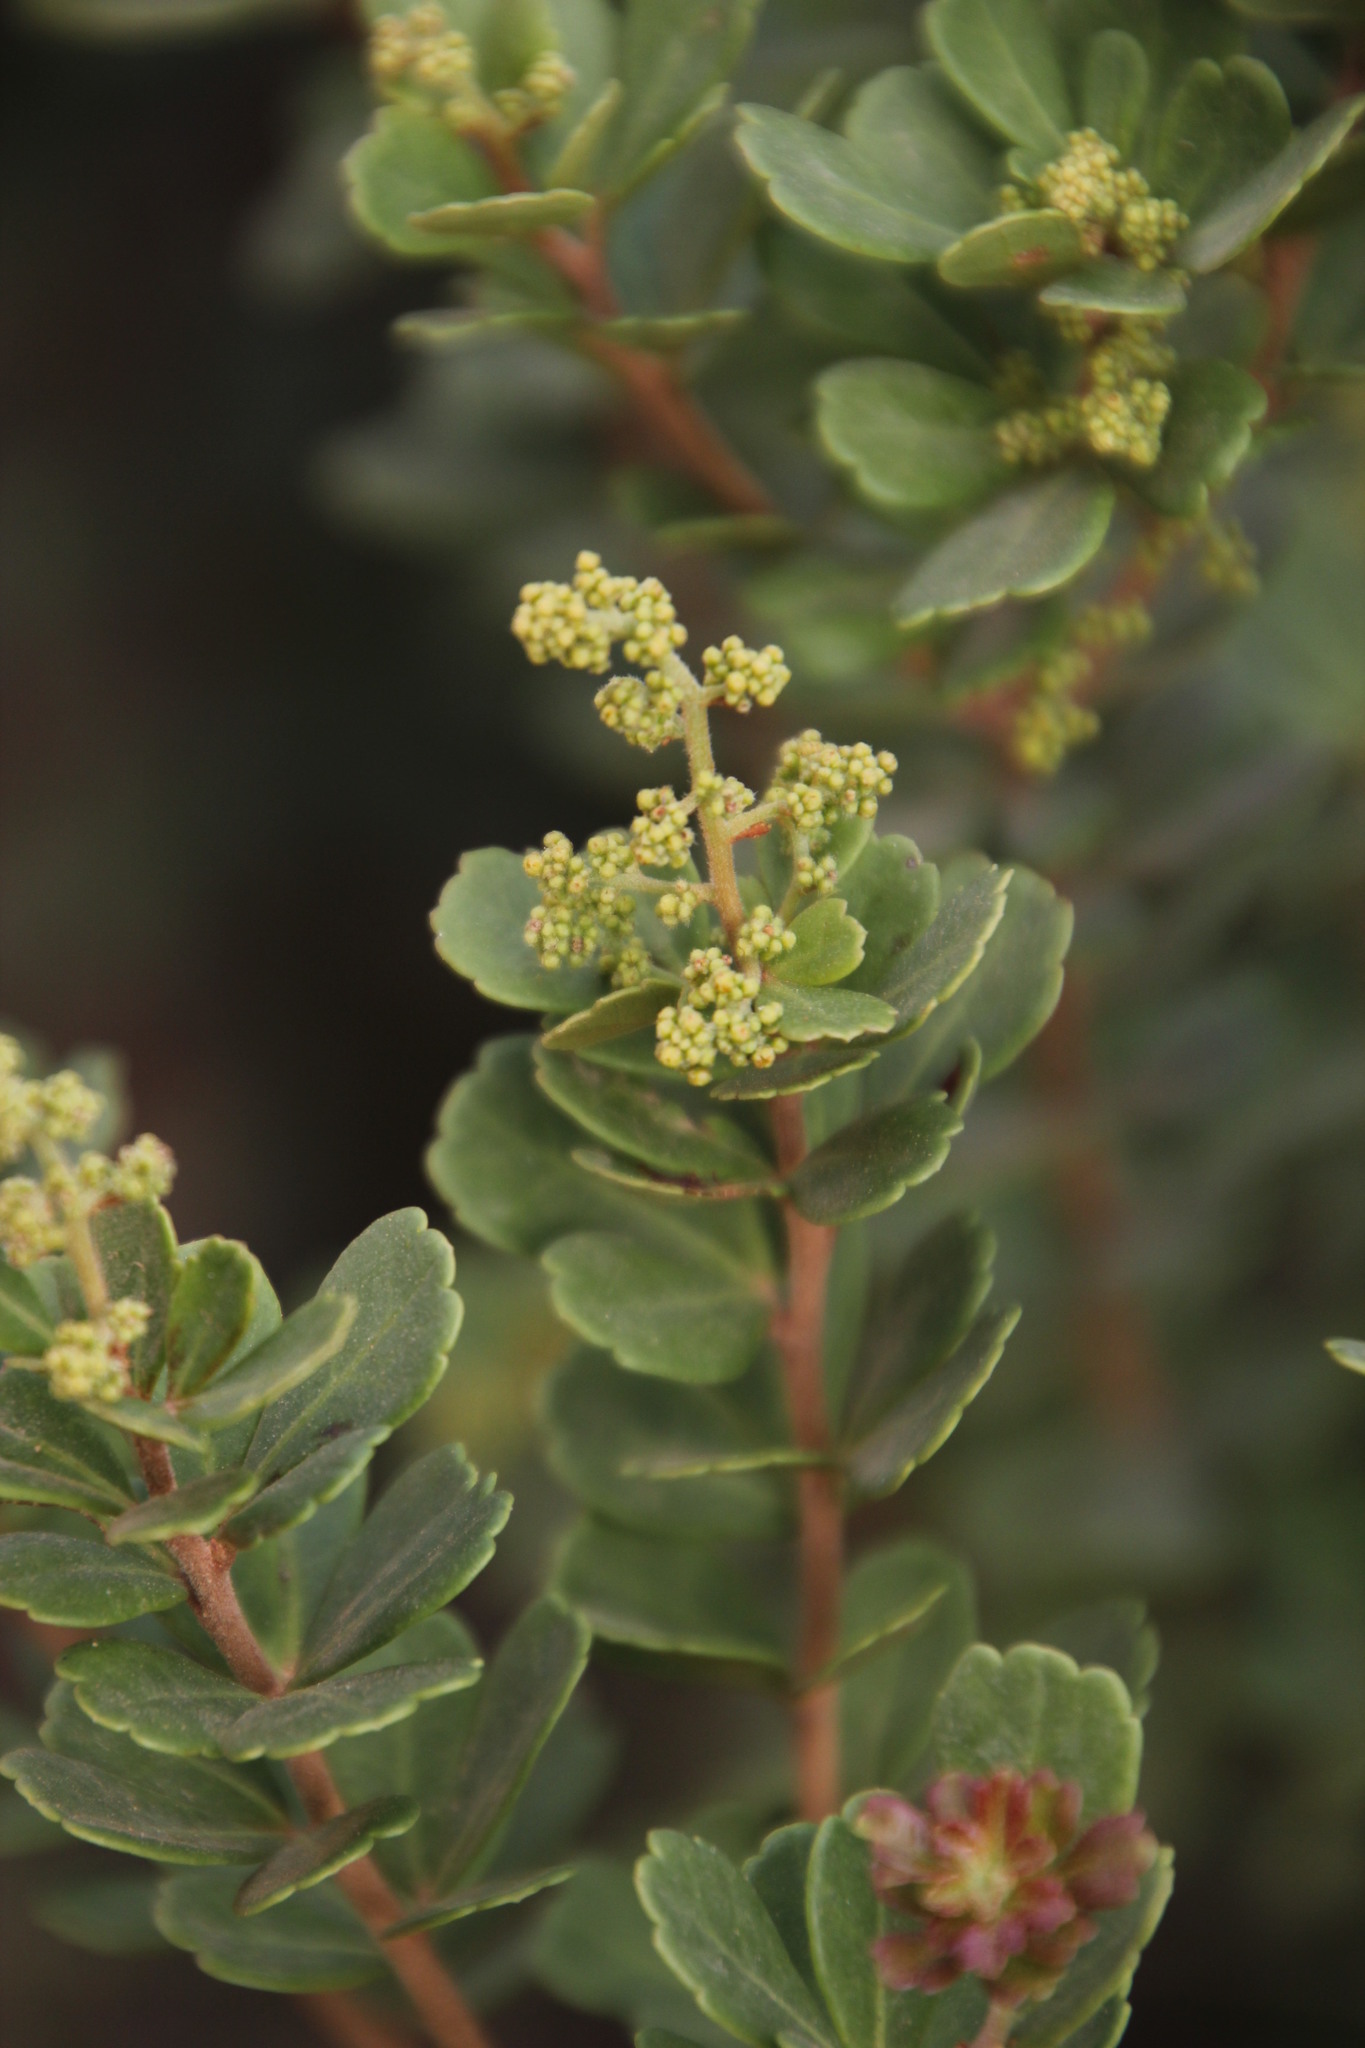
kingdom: Plantae
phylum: Tracheophyta
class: Magnoliopsida
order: Sapindales
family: Anacardiaceae
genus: Searsia
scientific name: Searsia crenata
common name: Crowberry
